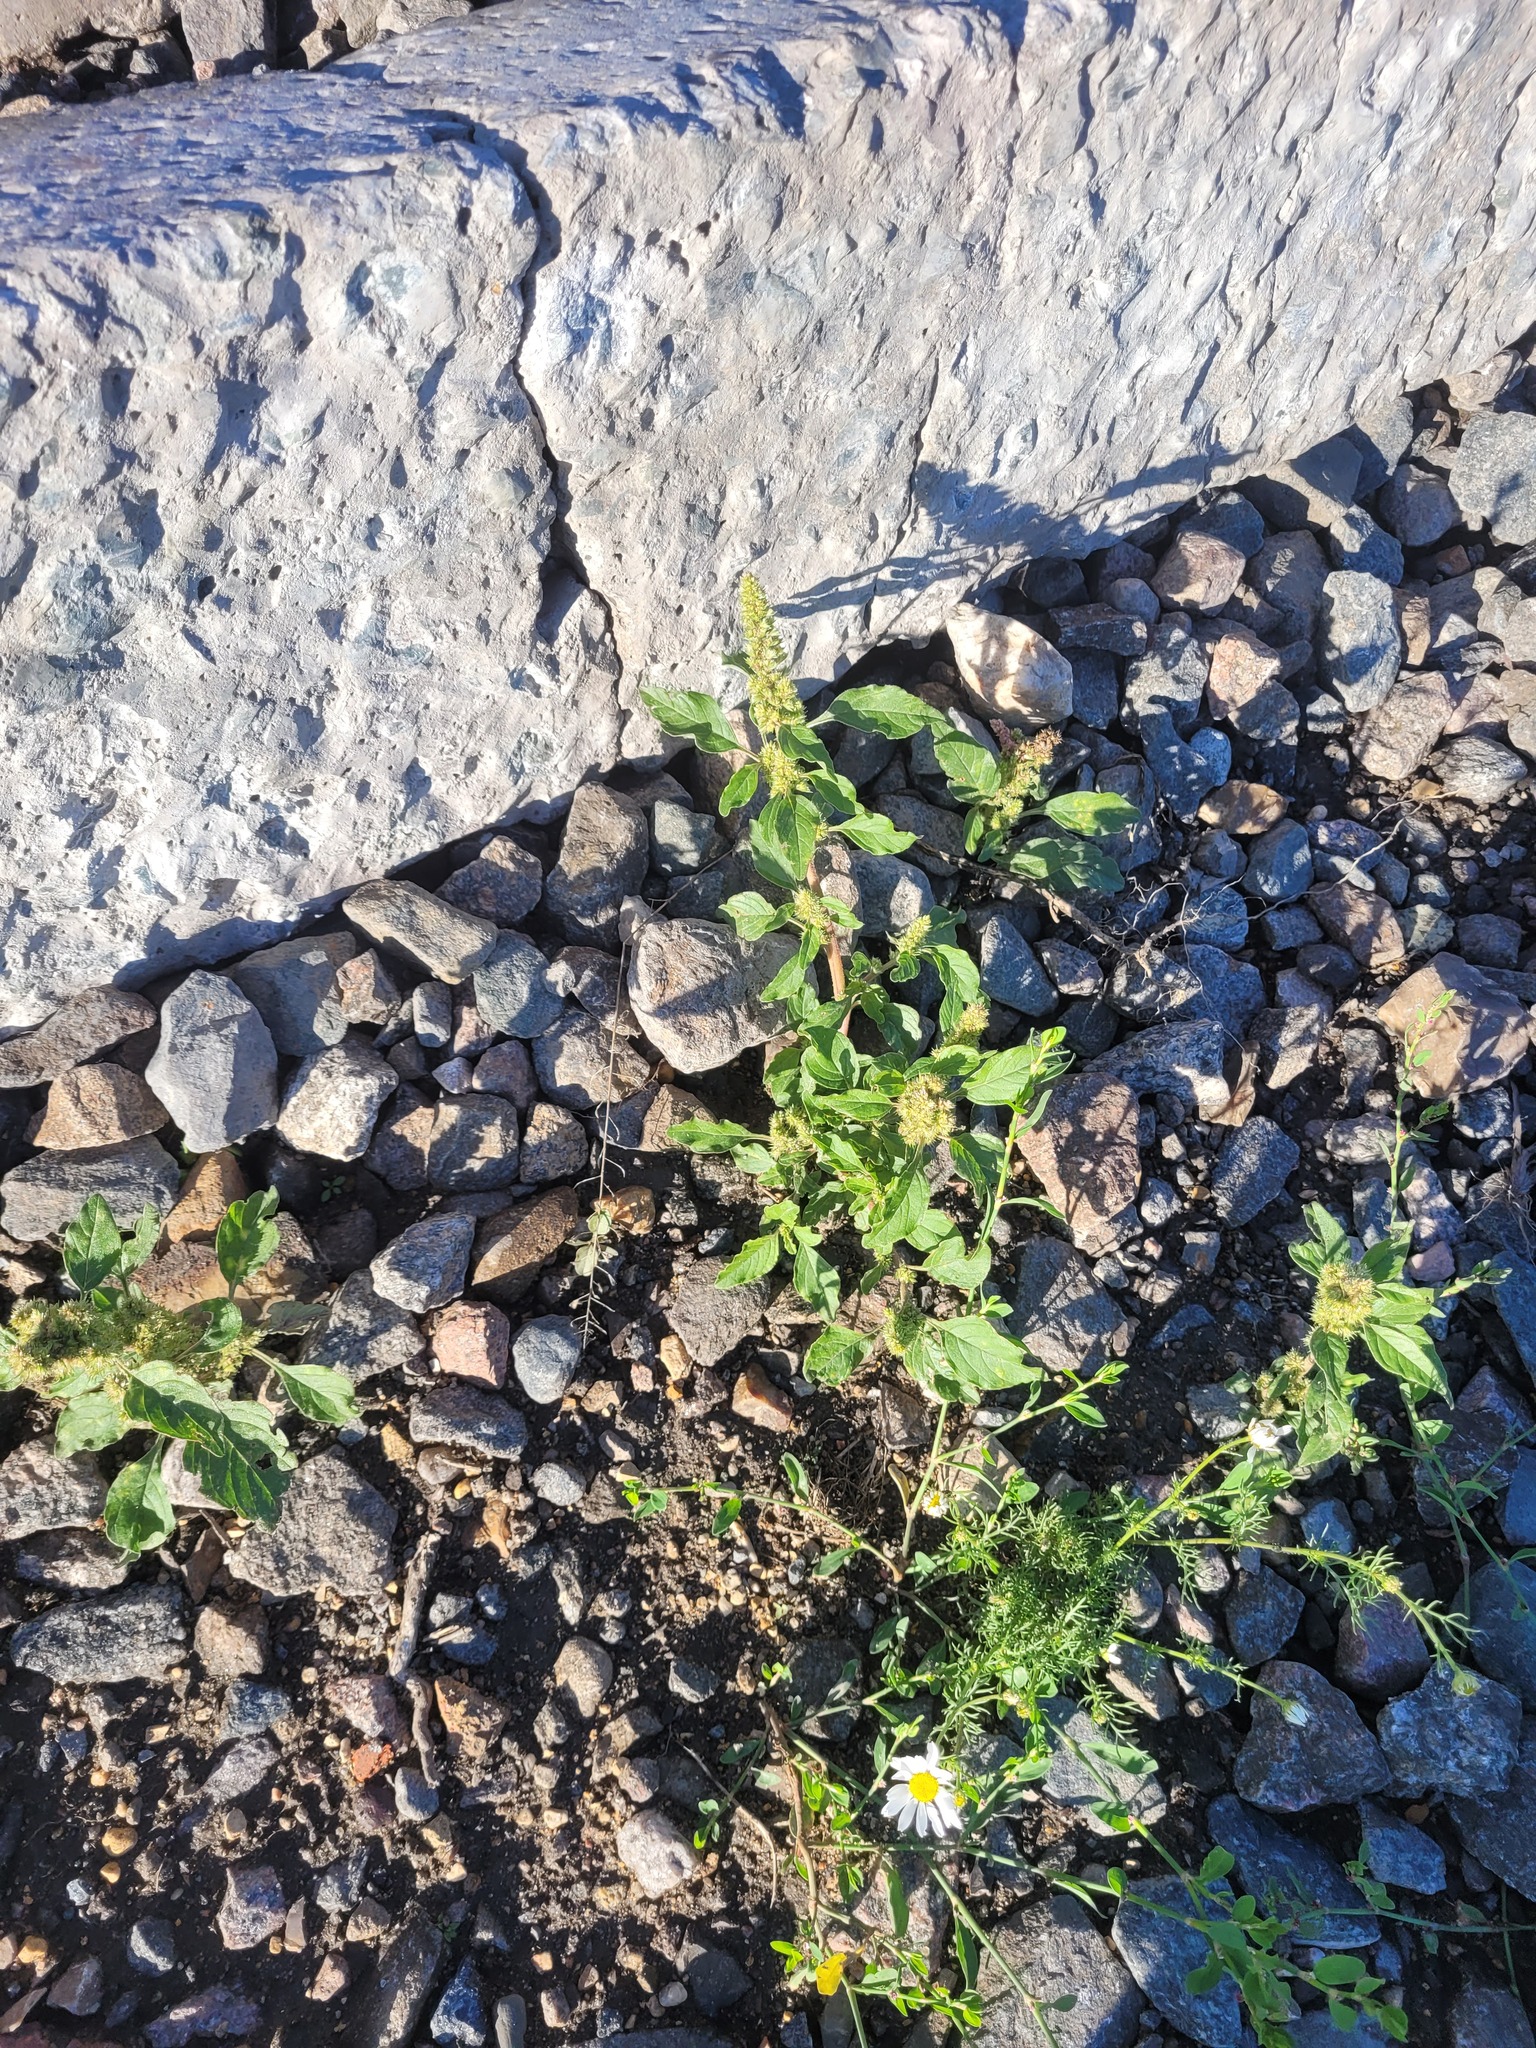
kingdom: Plantae
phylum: Tracheophyta
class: Magnoliopsida
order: Caryophyllales
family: Amaranthaceae
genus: Amaranthus
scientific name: Amaranthus retroflexus
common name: Redroot amaranth
